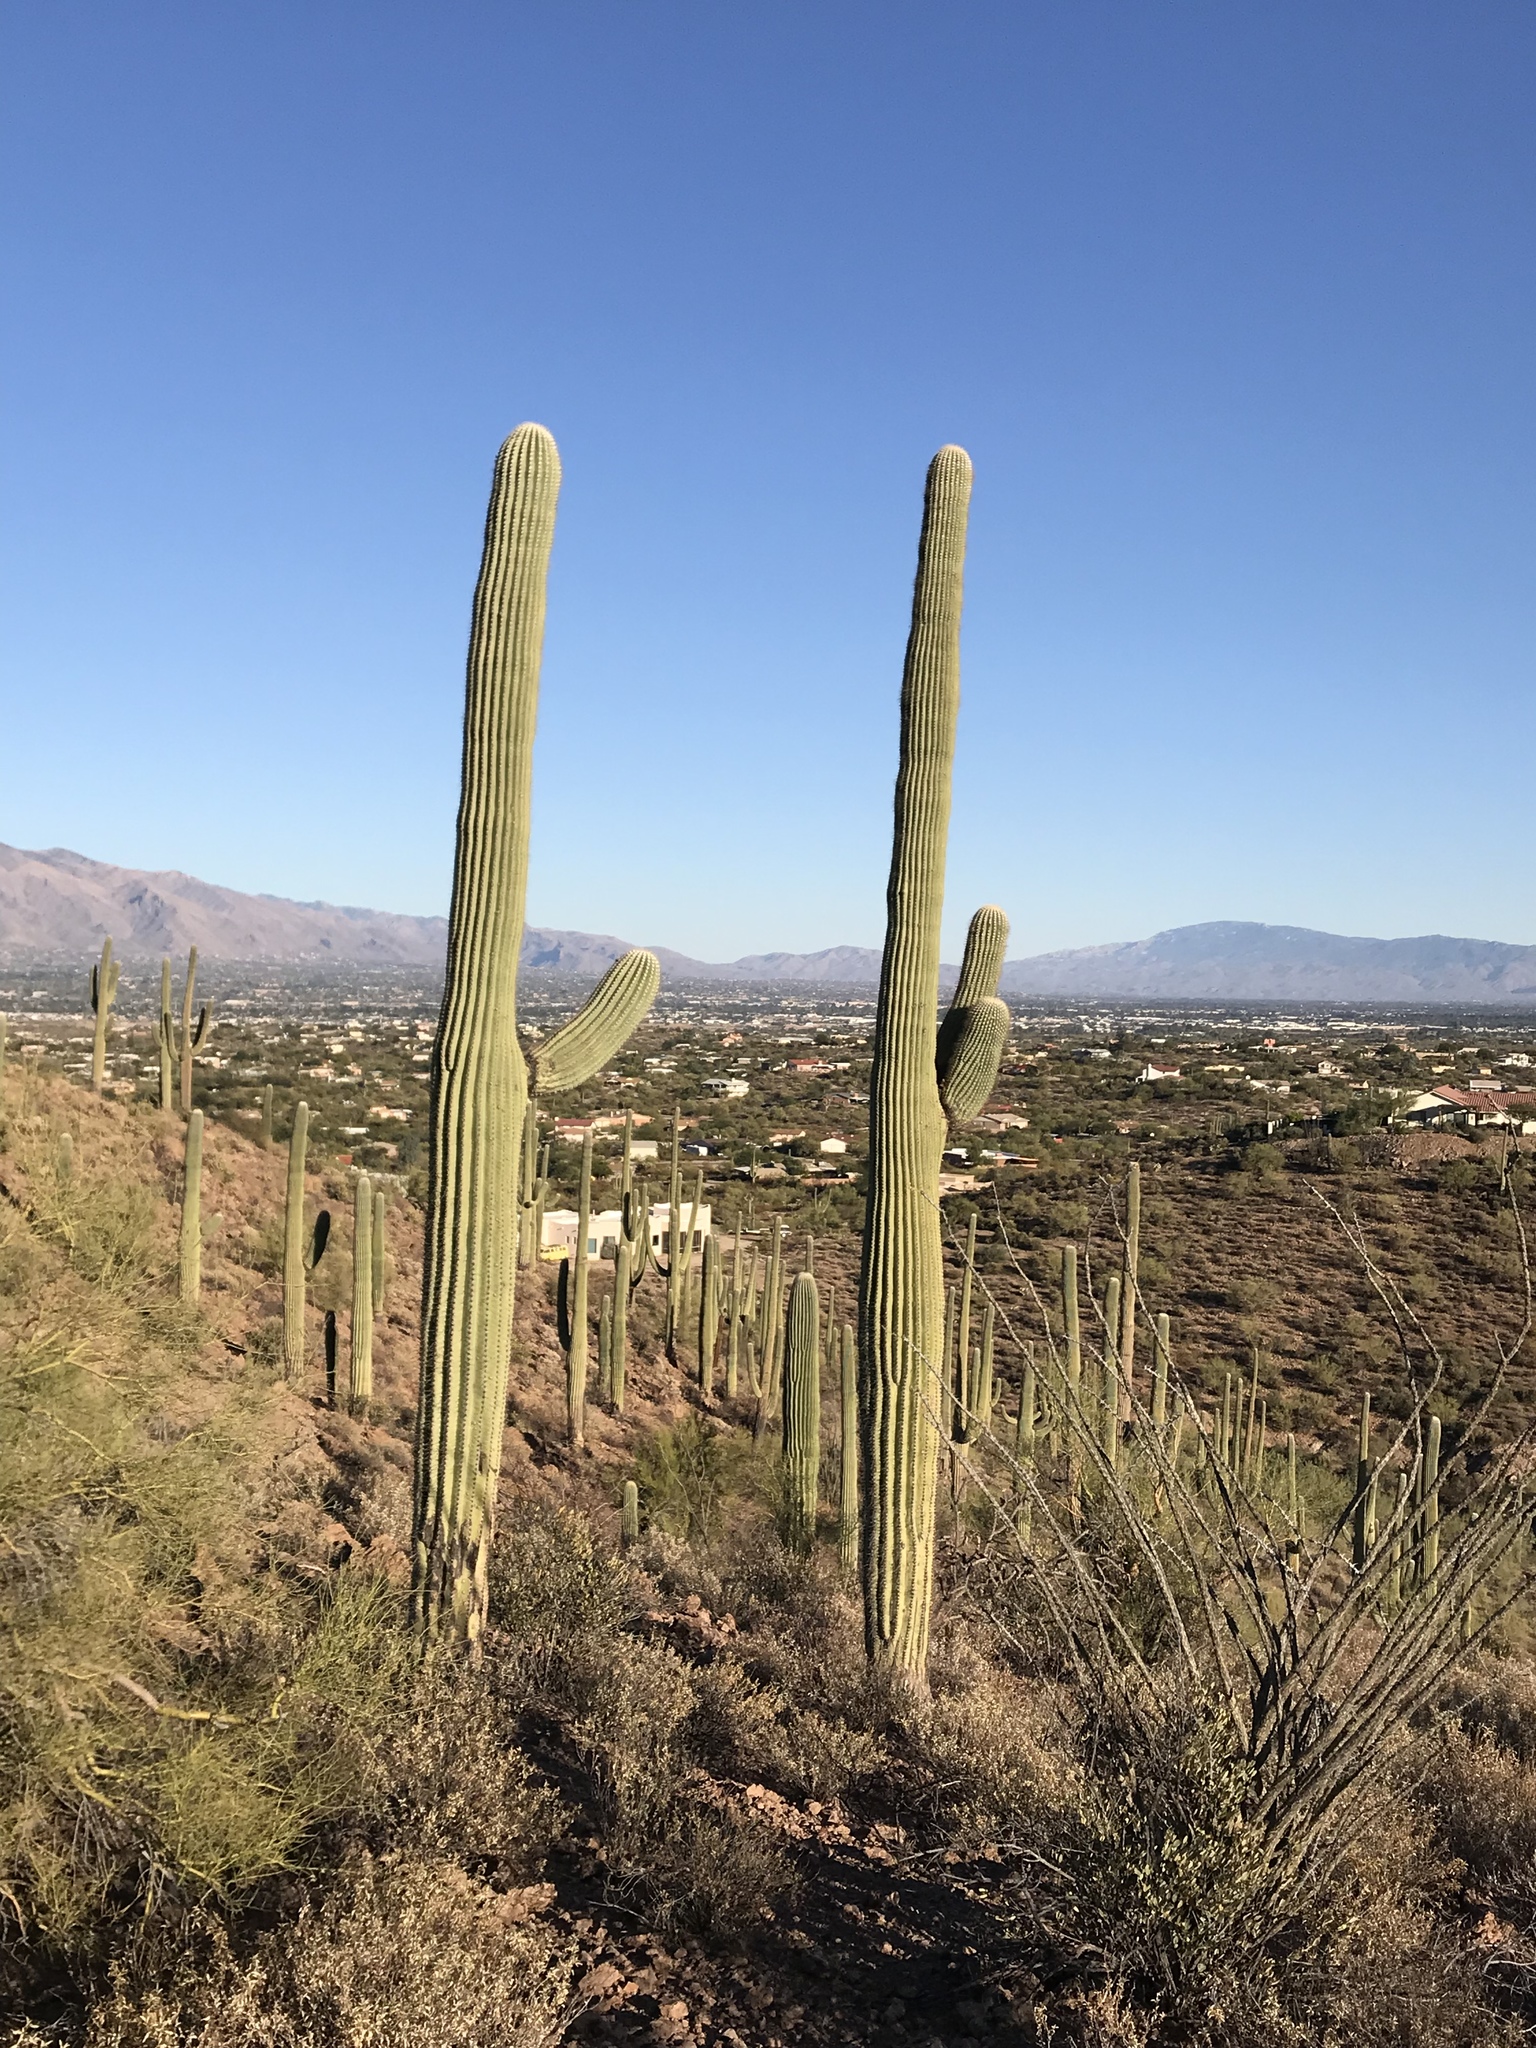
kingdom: Plantae
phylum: Tracheophyta
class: Magnoliopsida
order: Caryophyllales
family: Cactaceae
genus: Carnegiea
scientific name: Carnegiea gigantea
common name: Saguaro
